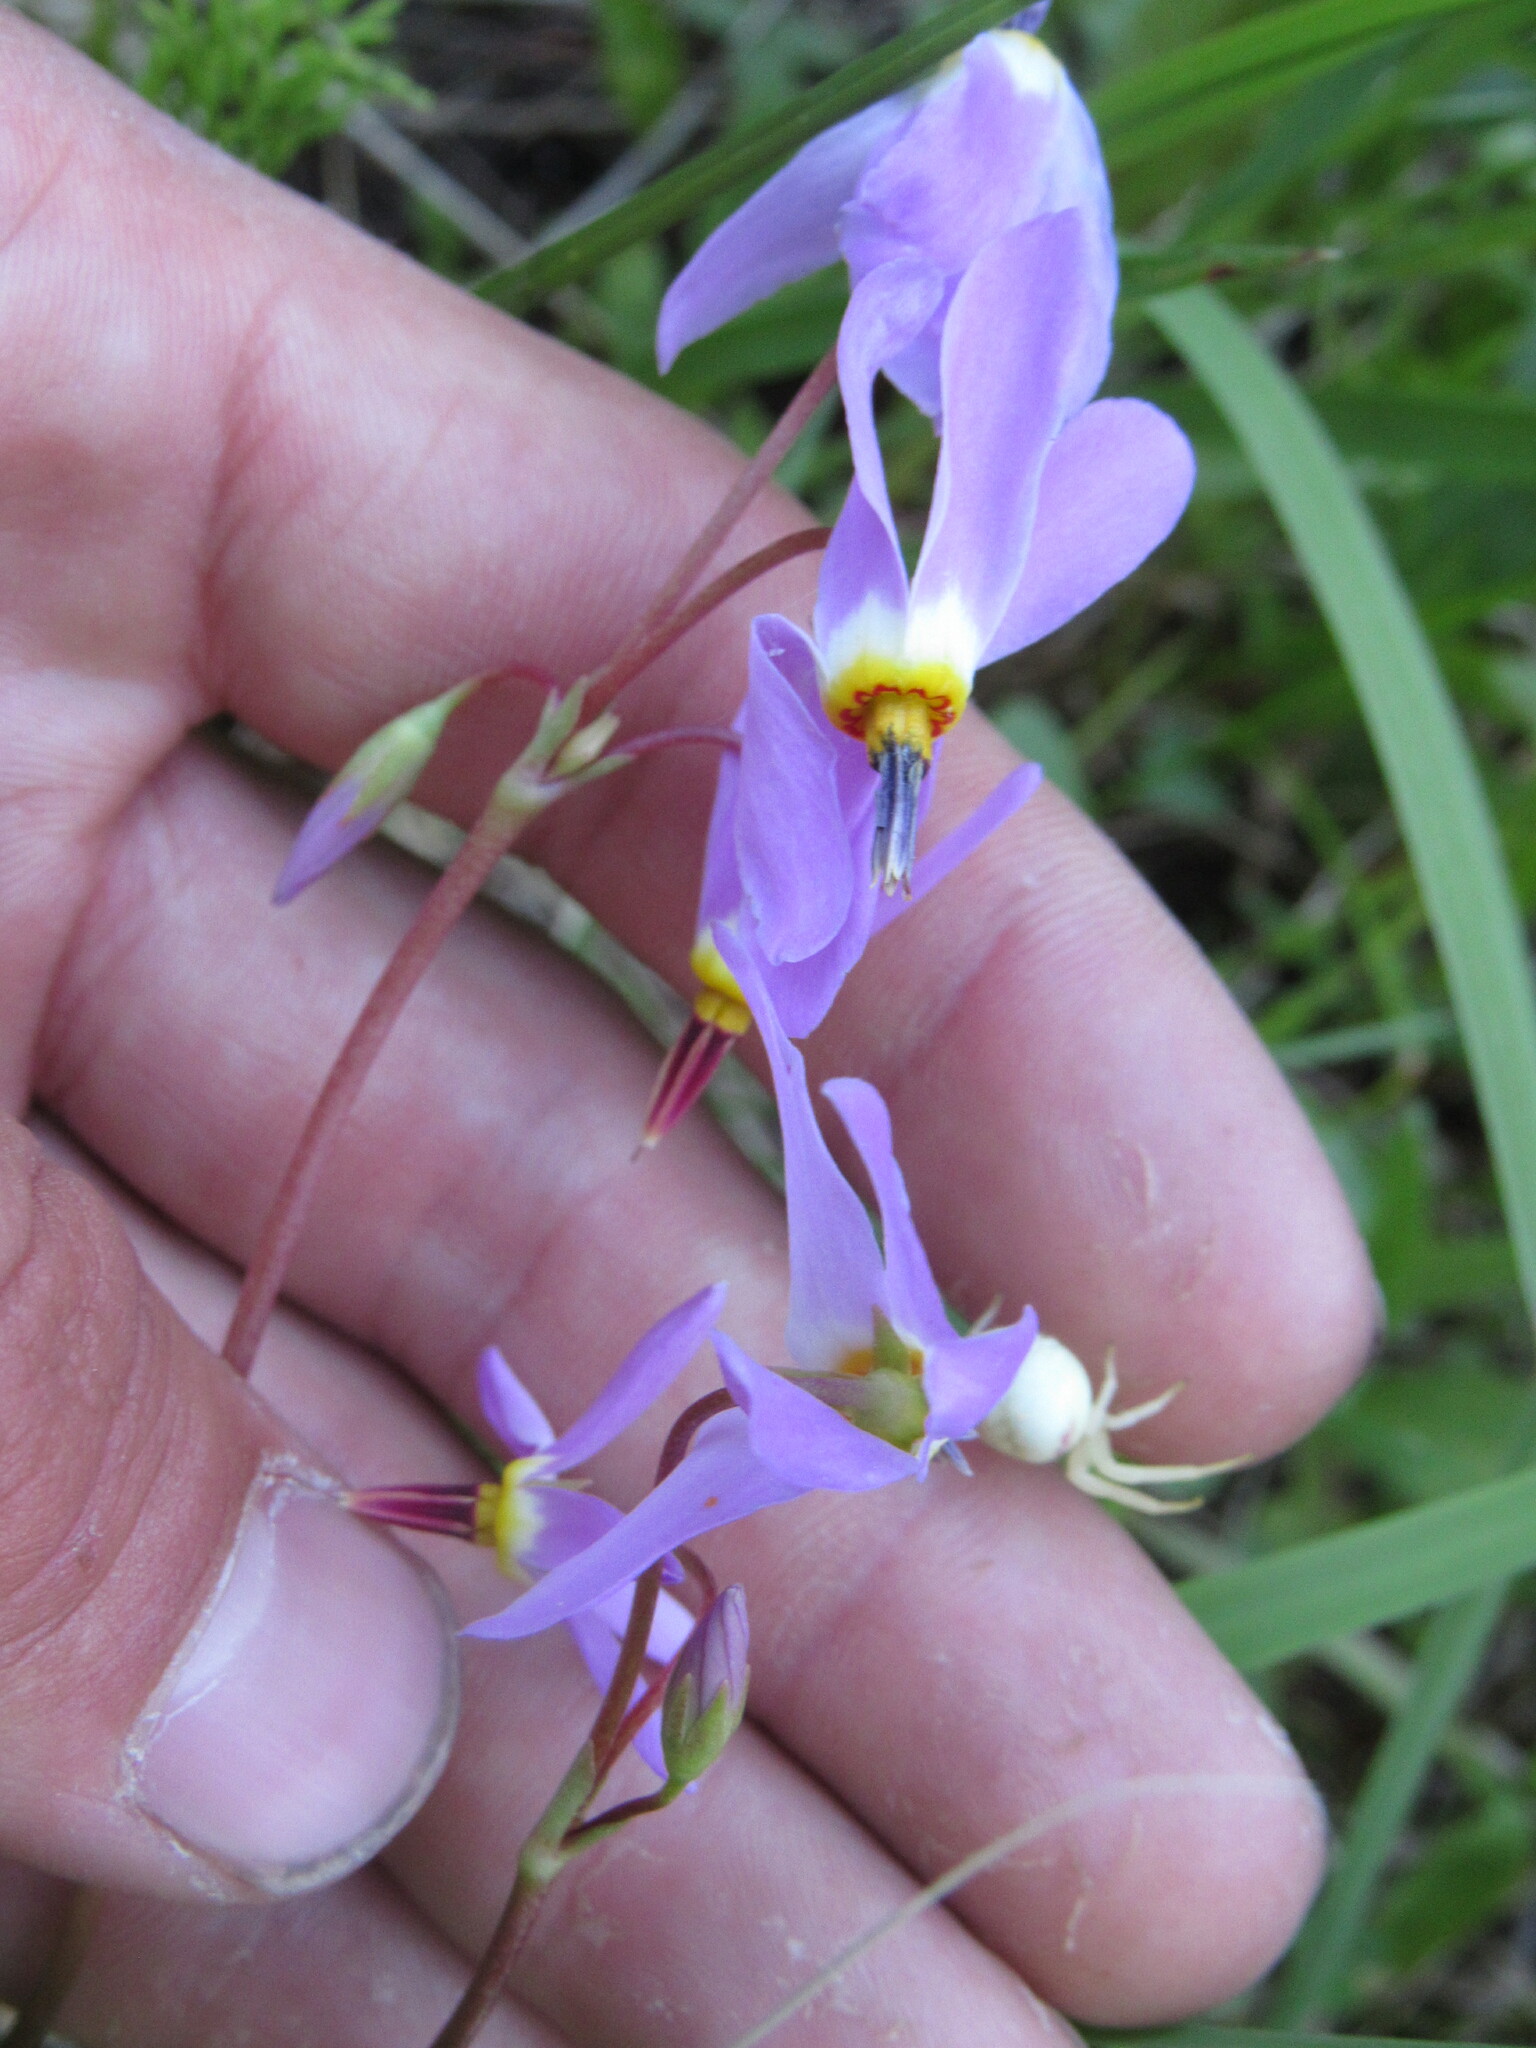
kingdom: Plantae
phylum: Tracheophyta
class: Magnoliopsida
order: Ericales
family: Primulaceae
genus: Dodecatheon
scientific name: Dodecatheon pulchellum
